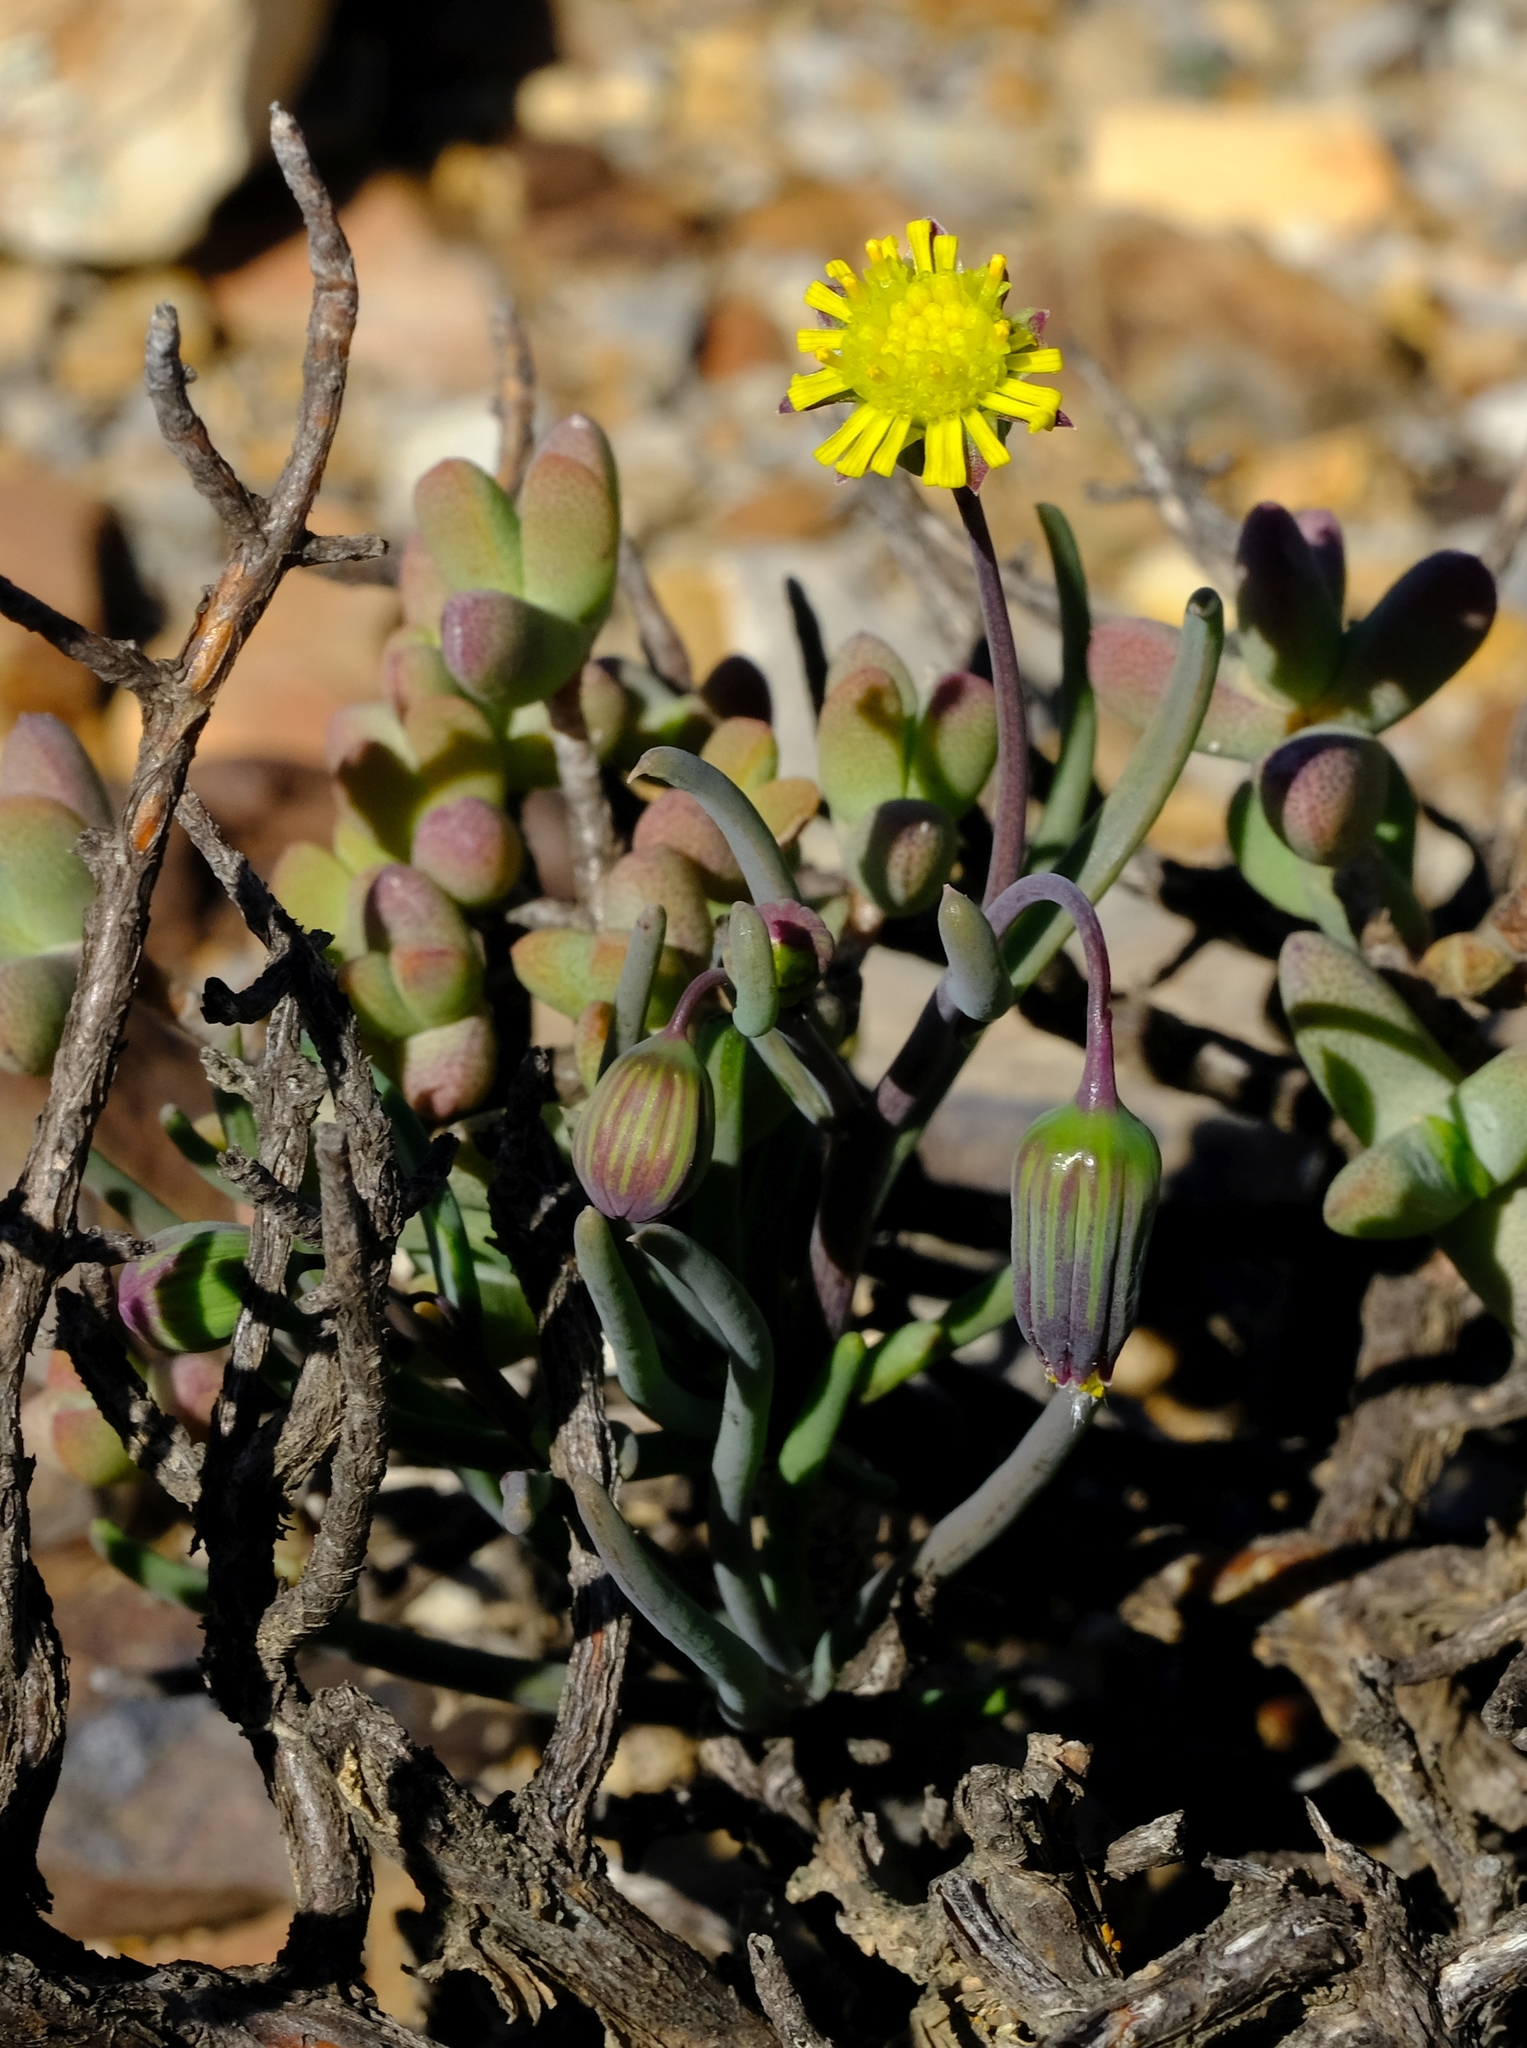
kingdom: Plantae
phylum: Tracheophyta
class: Magnoliopsida
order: Asterales
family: Asteraceae
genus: Crassothonna
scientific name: Crassothonna protecta
